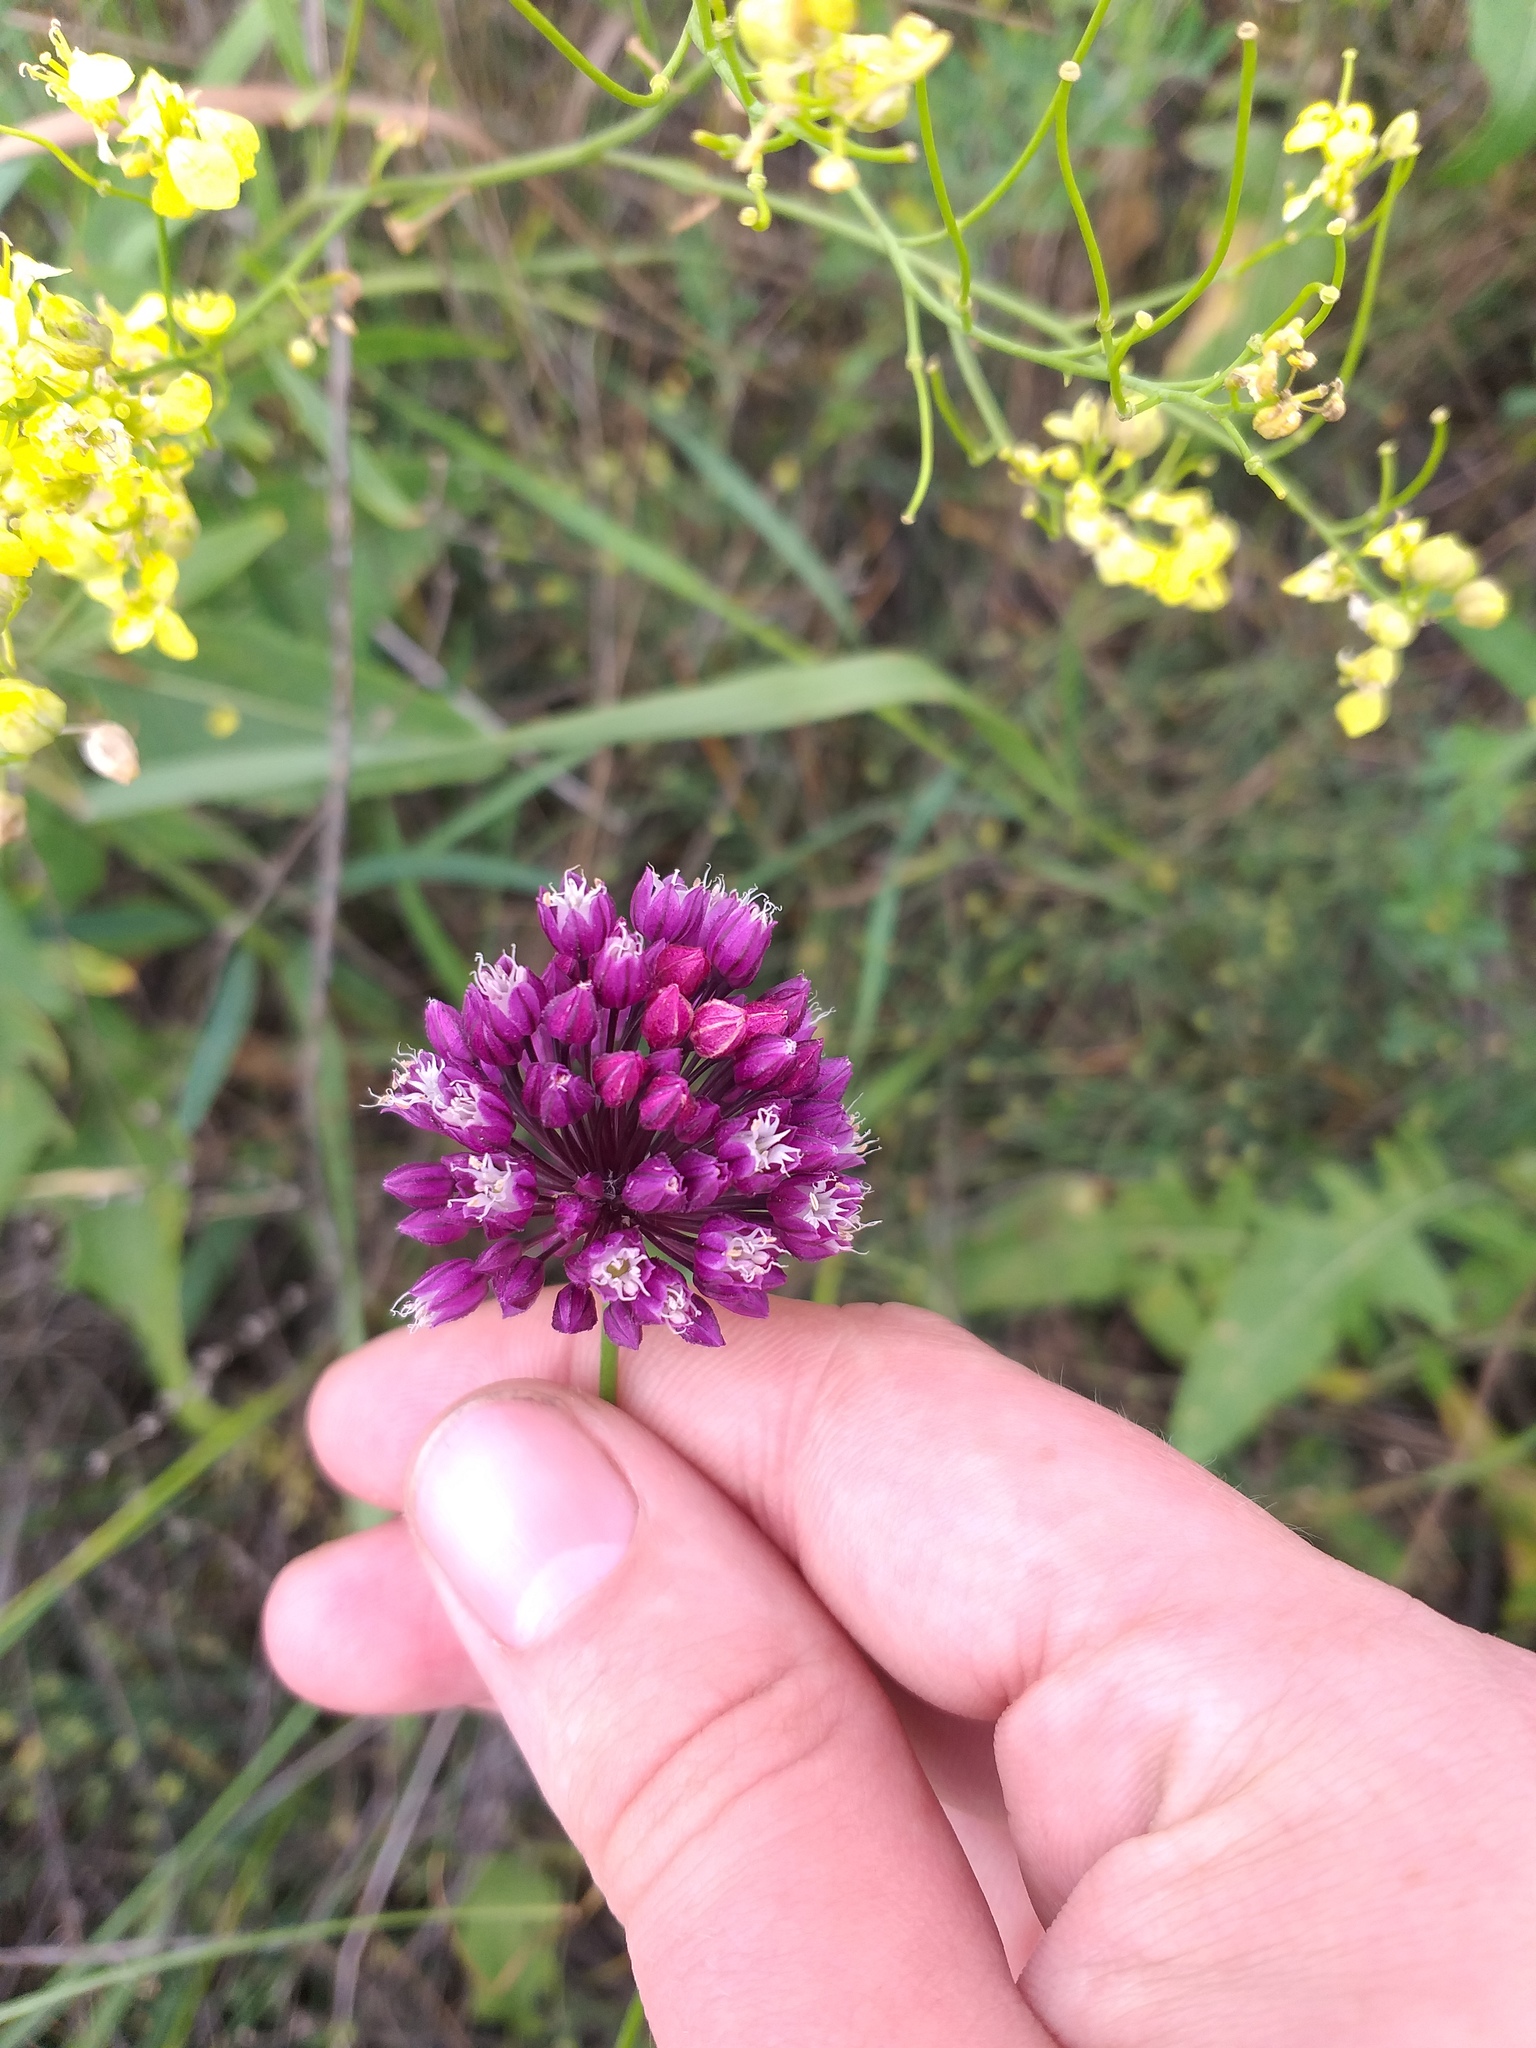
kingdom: Plantae
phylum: Tracheophyta
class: Liliopsida
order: Asparagales
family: Amaryllidaceae
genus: Allium
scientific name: Allium rotundum
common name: Sand leek
